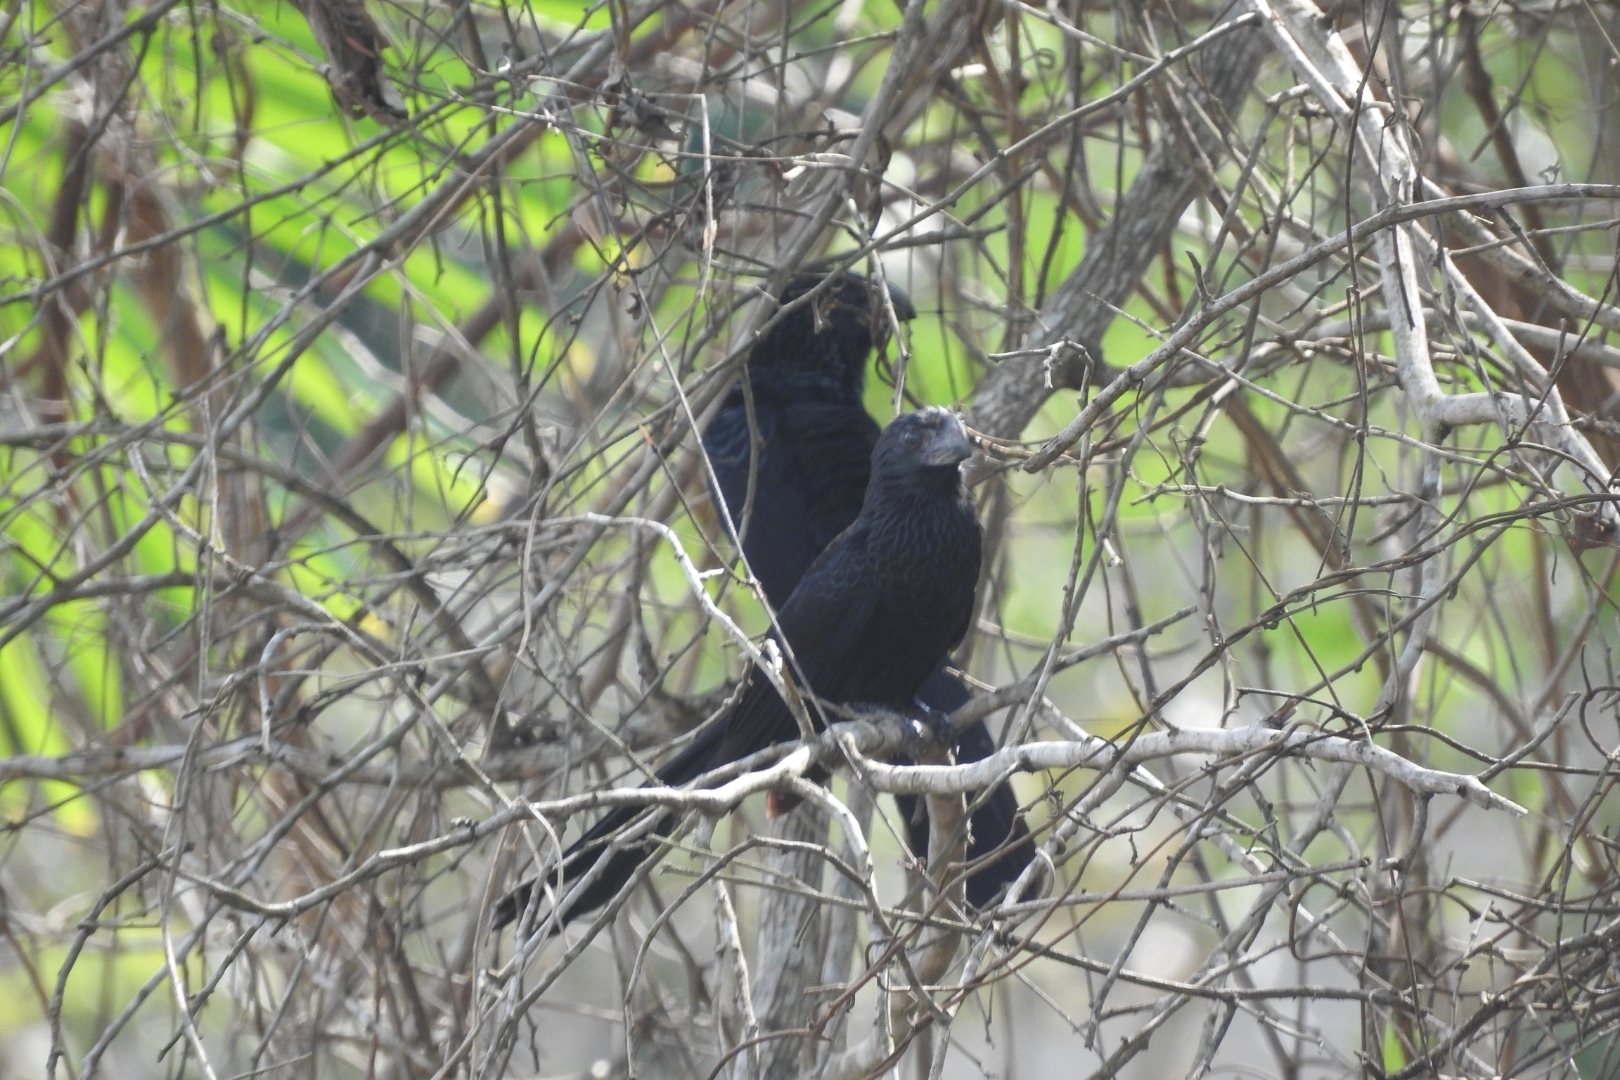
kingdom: Animalia
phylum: Chordata
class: Aves
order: Cuculiformes
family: Cuculidae
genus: Crotophaga
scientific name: Crotophaga sulcirostris
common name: Groove-billed ani
